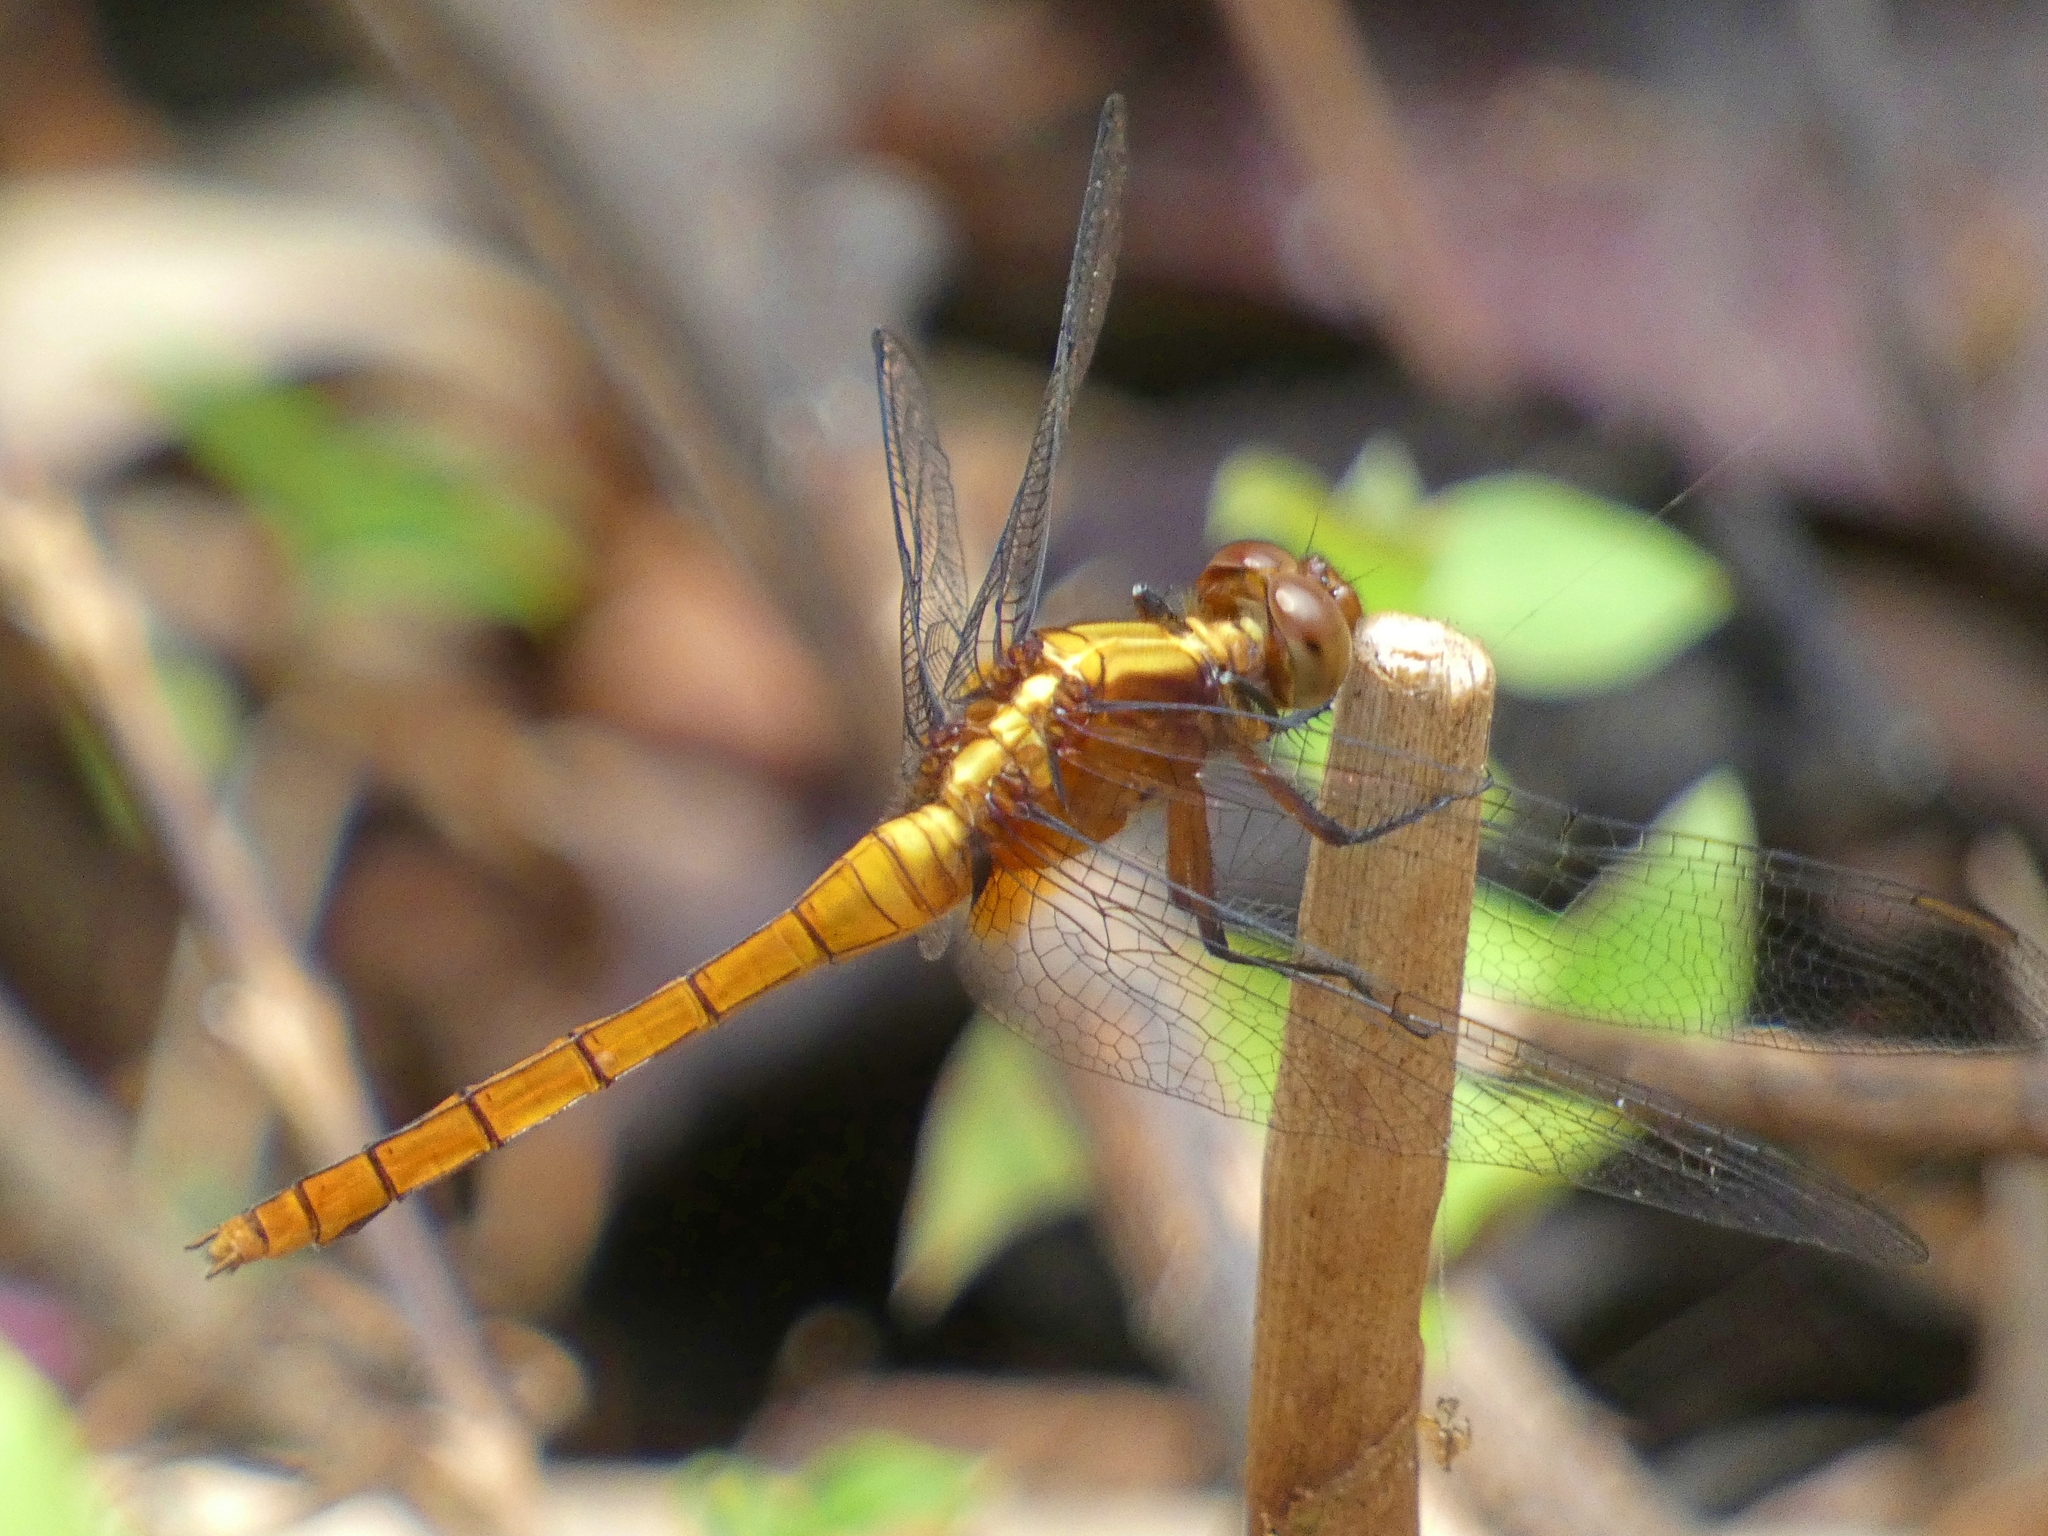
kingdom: Animalia
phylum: Arthropoda
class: Insecta
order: Odonata
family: Libellulidae
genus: Orthetrum
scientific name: Orthetrum villosovittatum
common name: Firery skimmer
